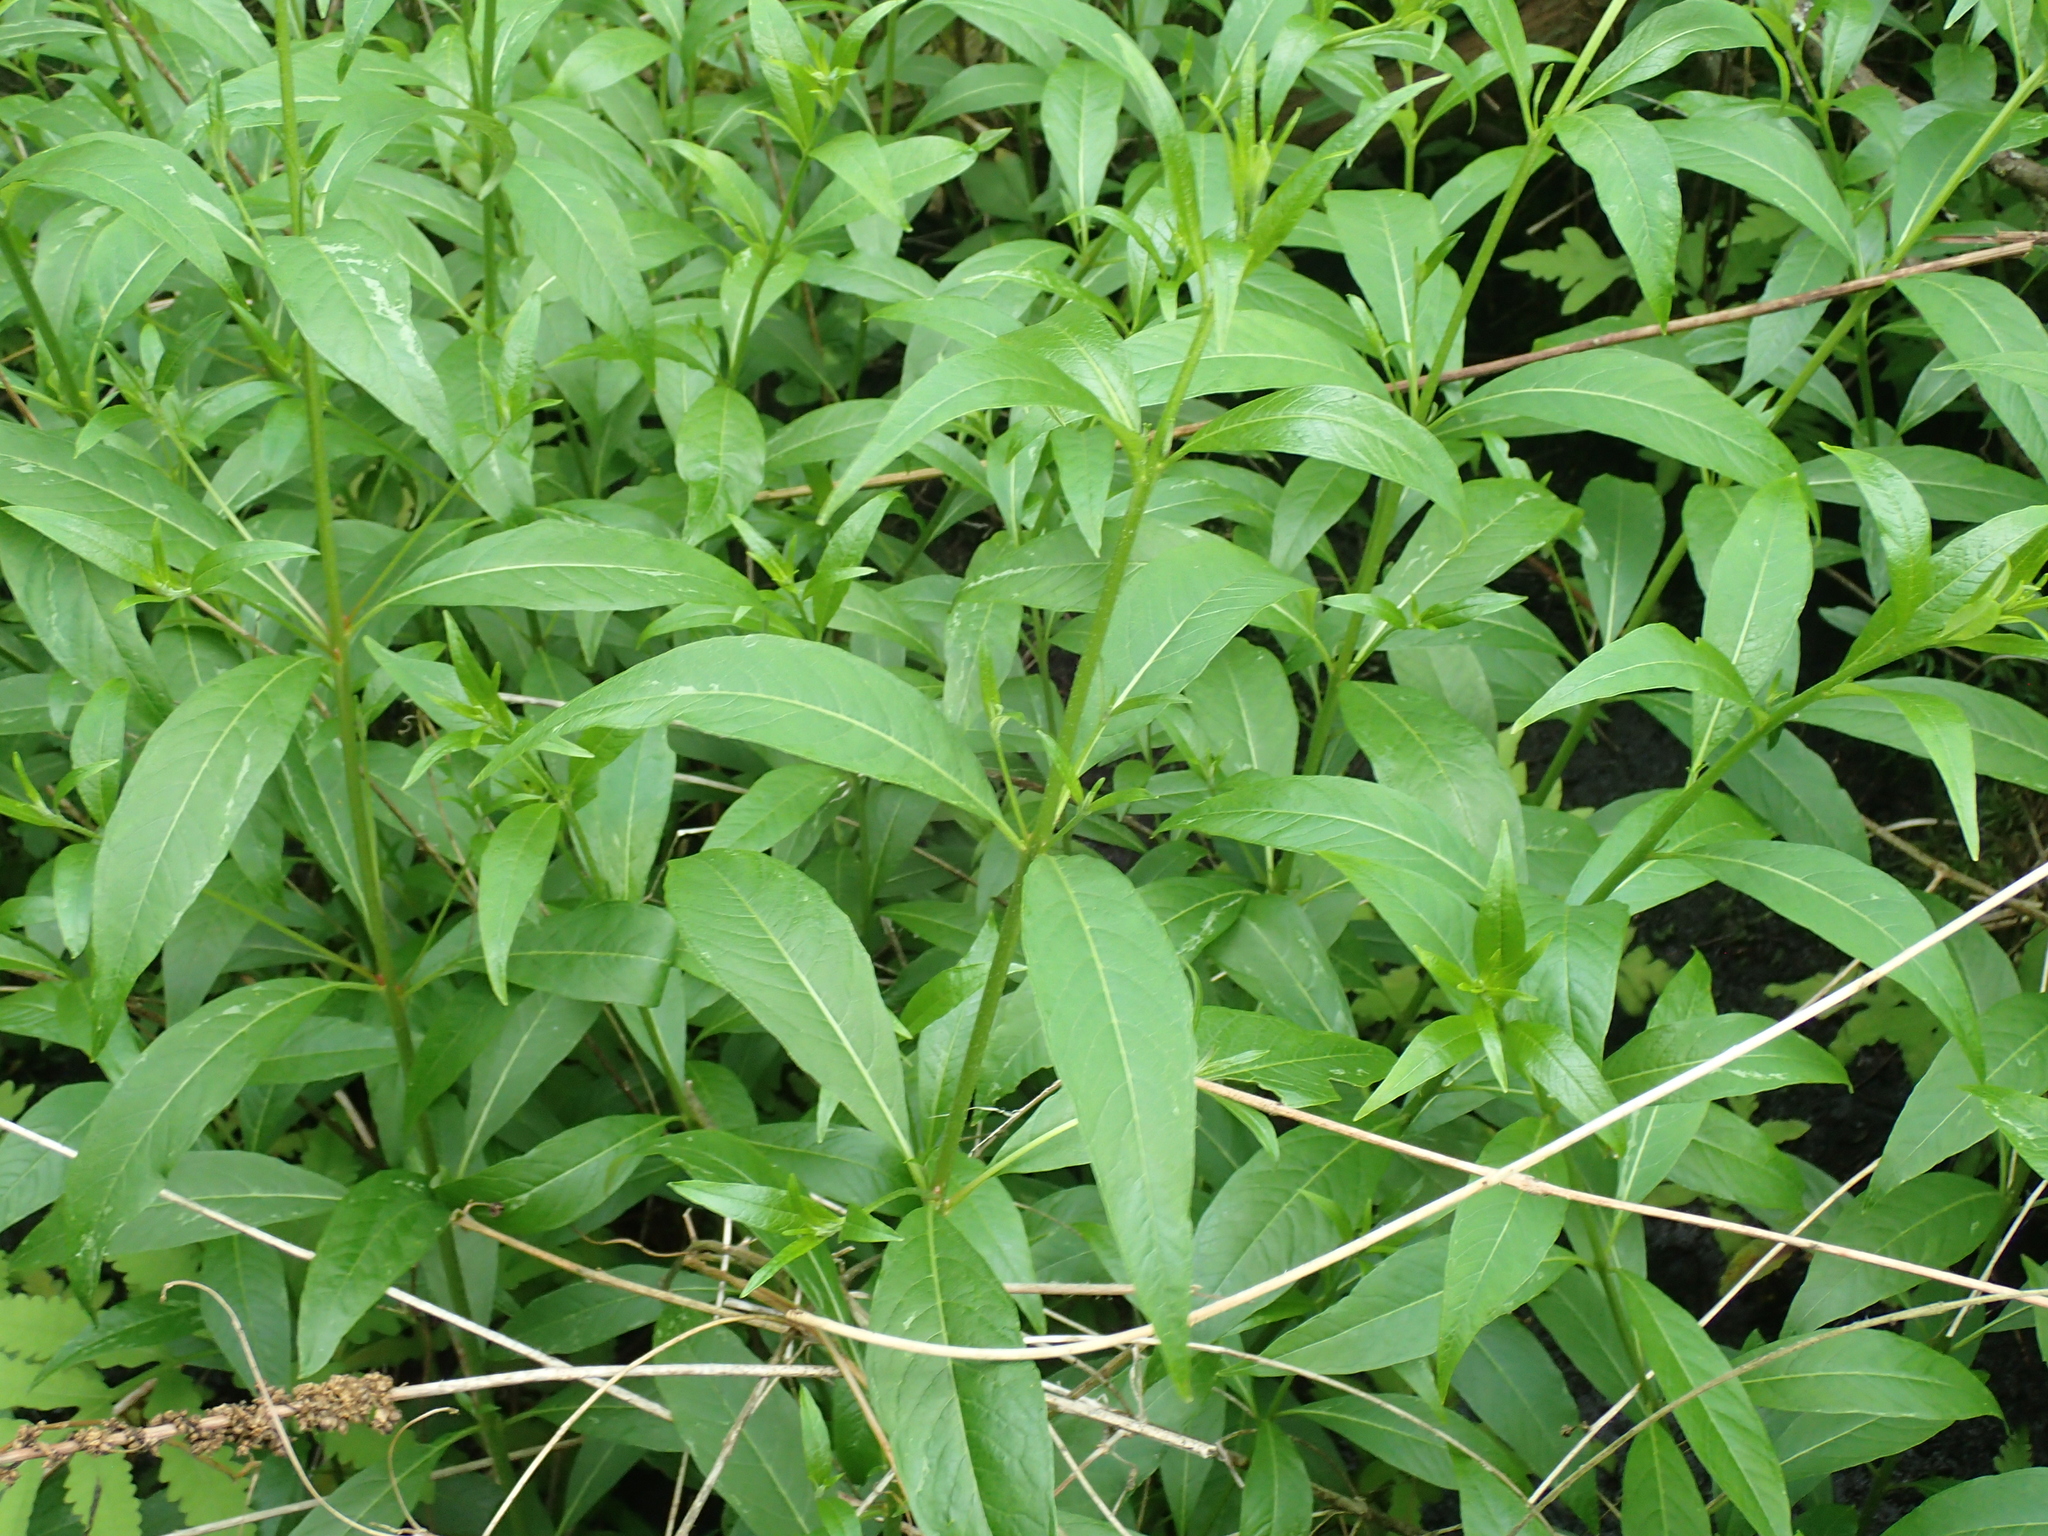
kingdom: Plantae
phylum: Tracheophyta
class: Magnoliopsida
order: Myrtales
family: Lythraceae
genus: Decodon
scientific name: Decodon verticillatus
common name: Hairy swamp loosestrife
